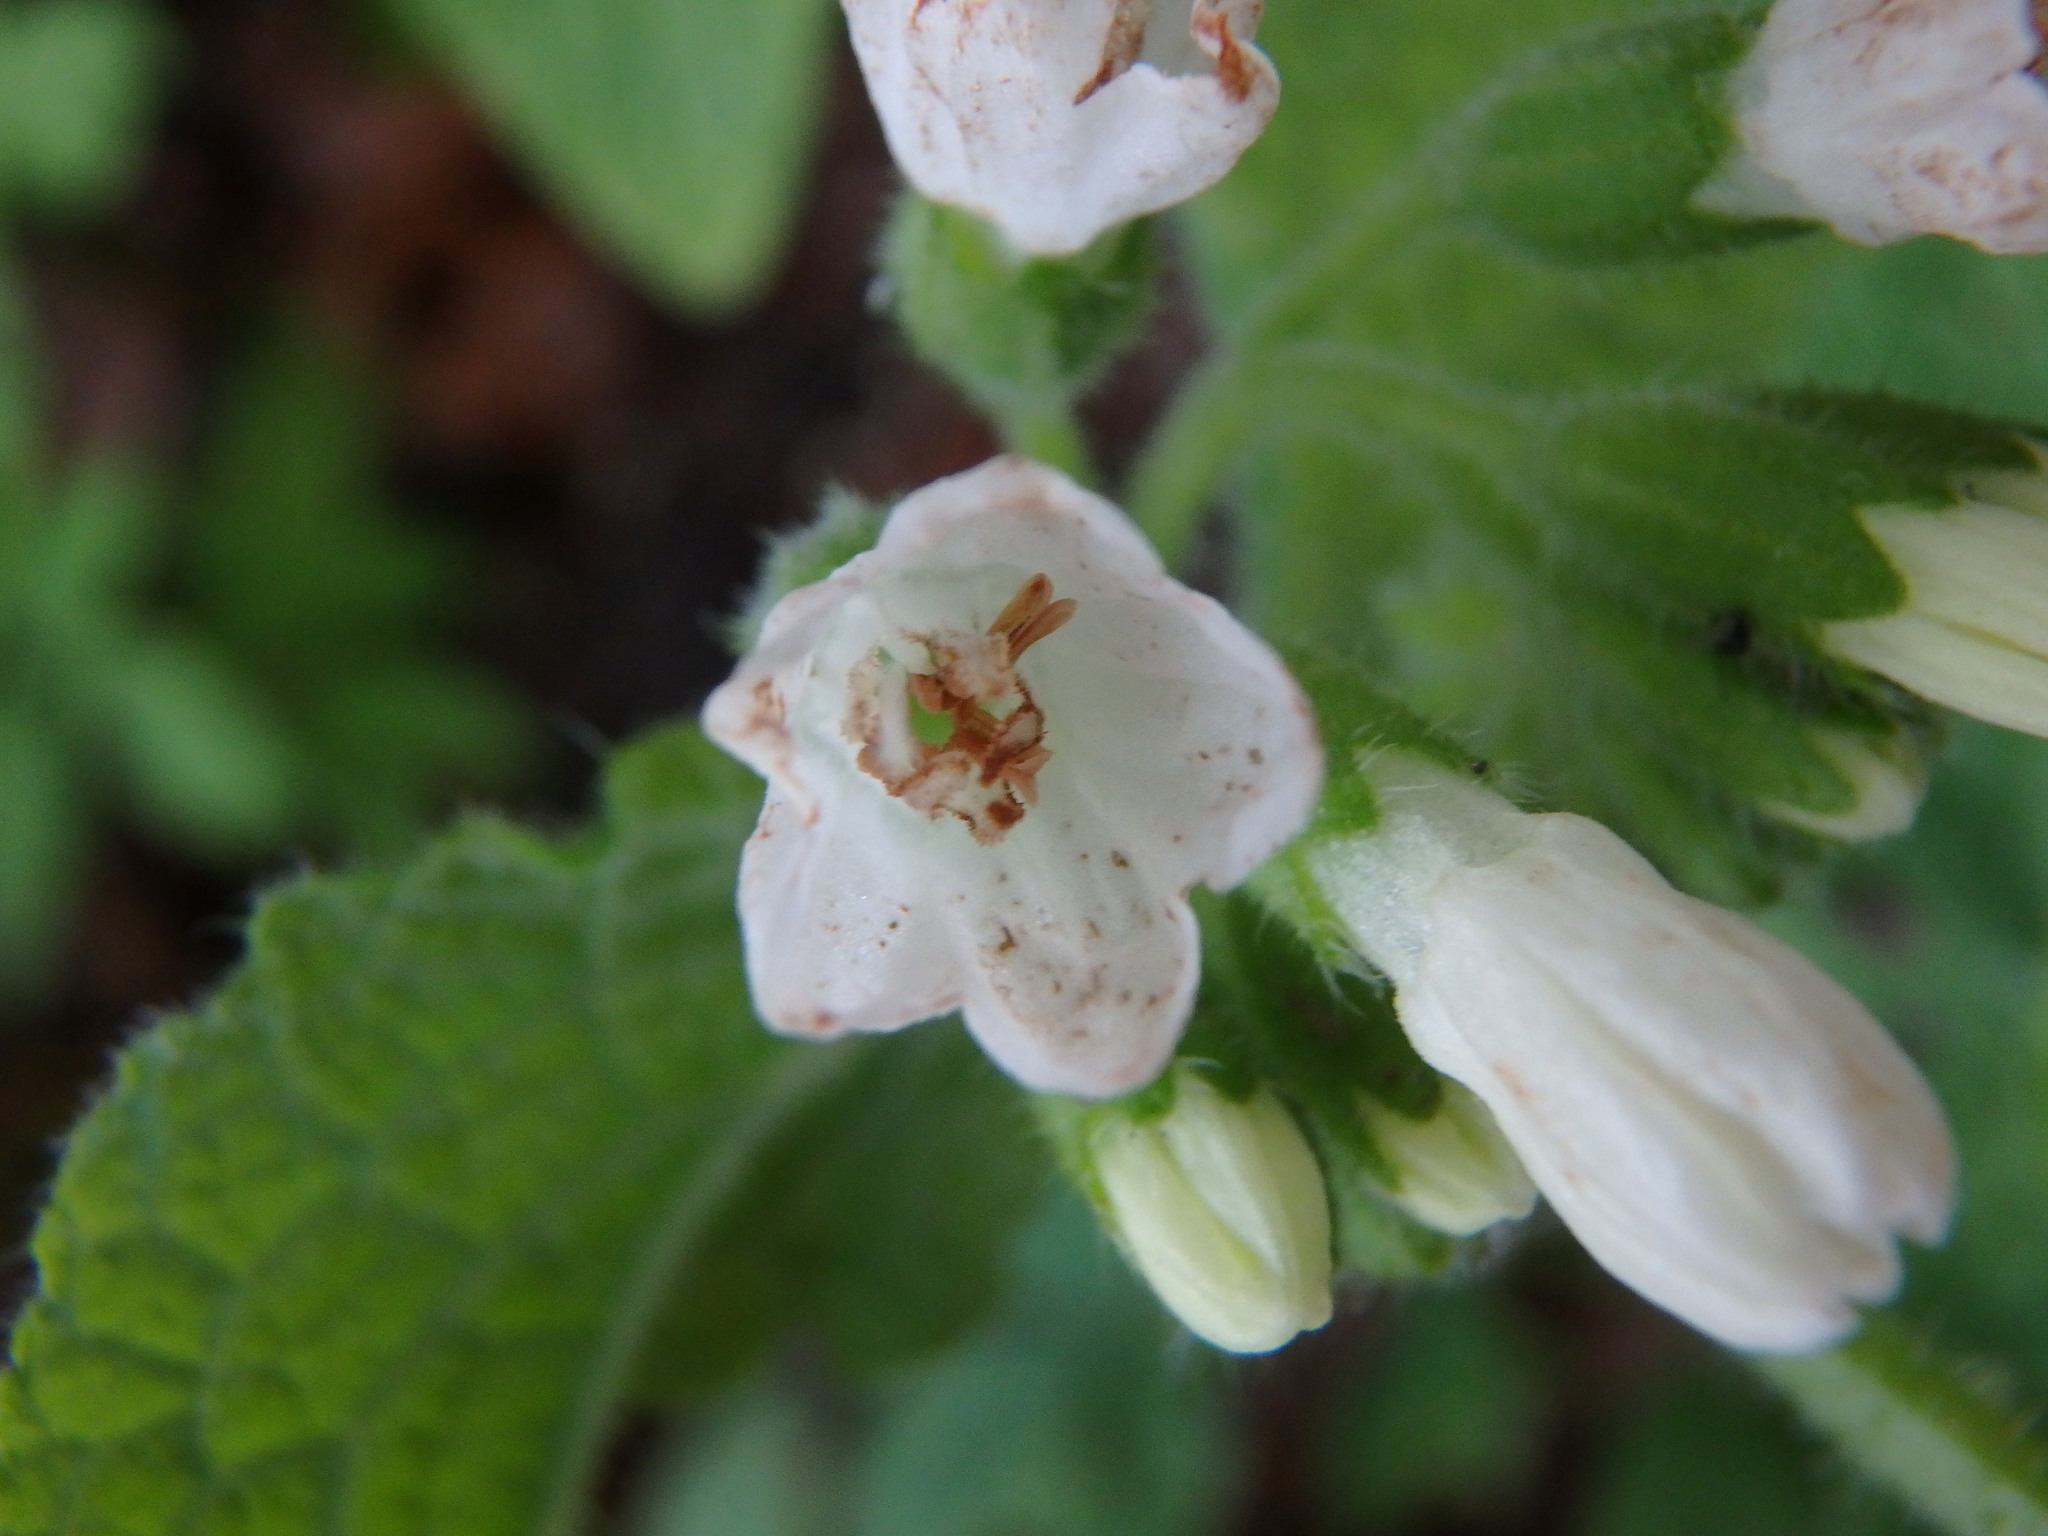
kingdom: Plantae
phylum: Tracheophyta
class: Magnoliopsida
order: Boraginales
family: Boraginaceae
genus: Symphytum
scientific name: Symphytum orientale
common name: White comfrey
